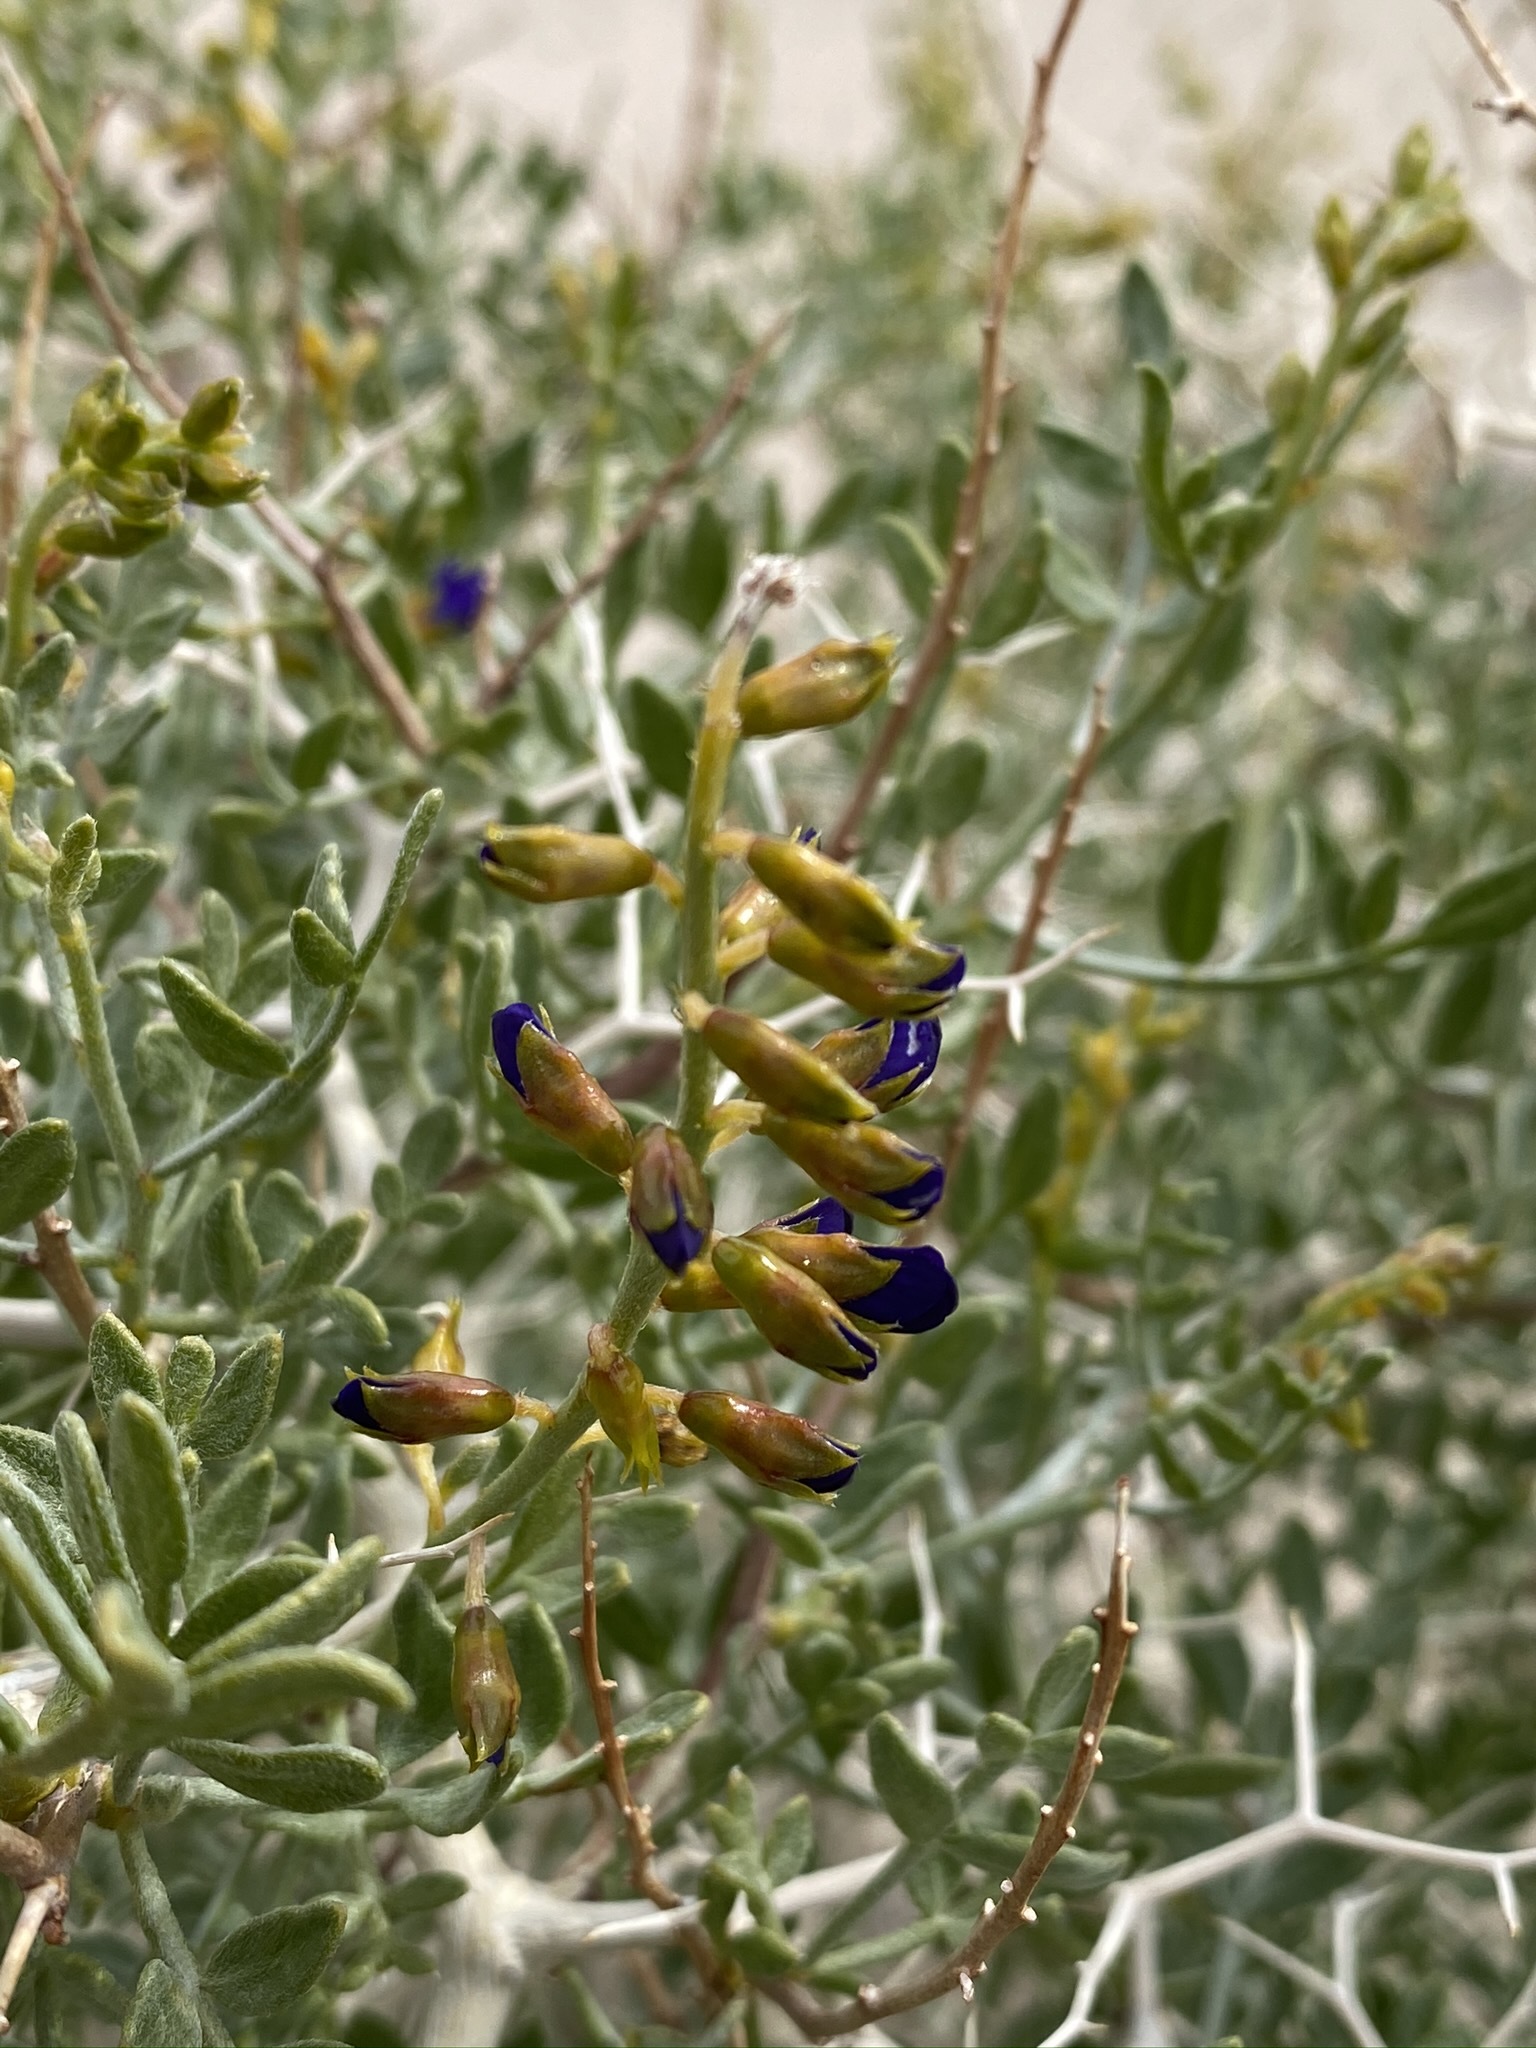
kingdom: Plantae
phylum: Tracheophyta
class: Magnoliopsida
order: Fabales
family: Fabaceae
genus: Psorothamnus
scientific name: Psorothamnus arborescens
